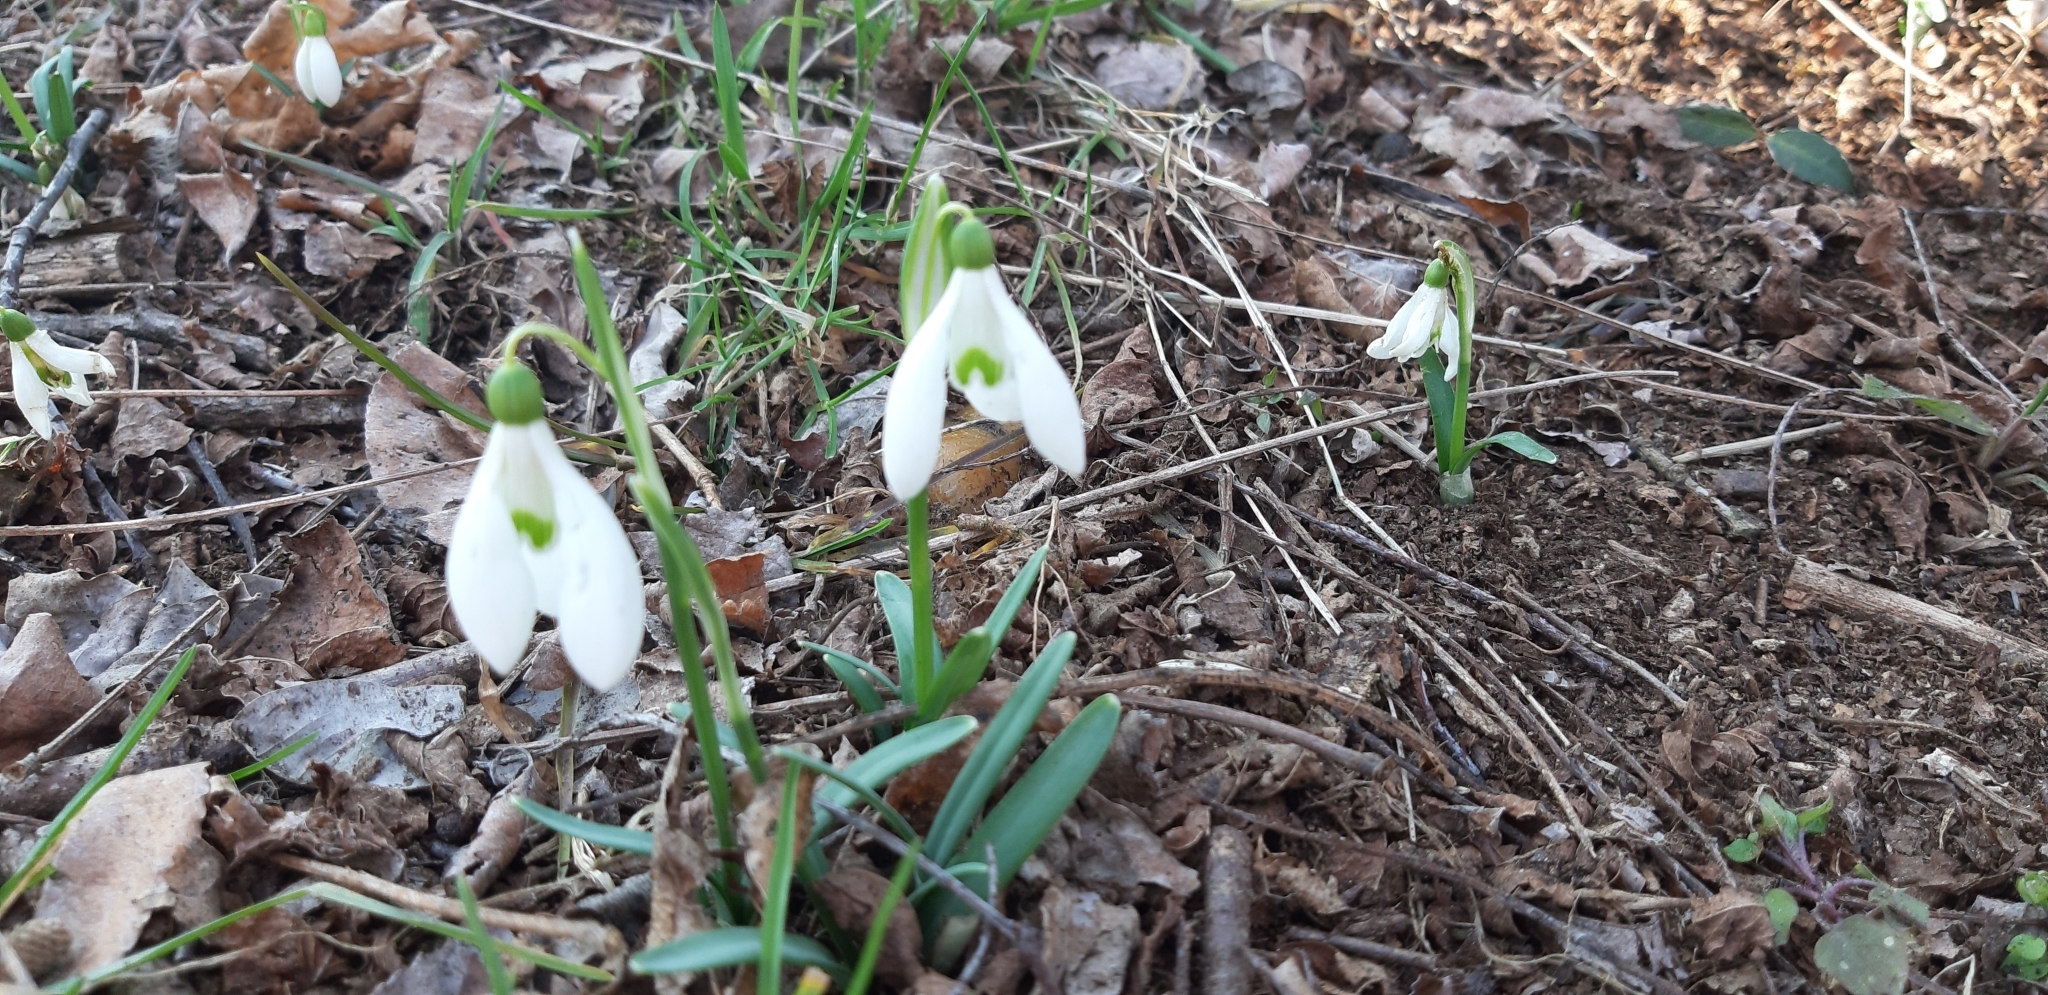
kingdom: Plantae
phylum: Tracheophyta
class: Liliopsida
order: Asparagales
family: Amaryllidaceae
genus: Galanthus
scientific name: Galanthus nivalis
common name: Snowdrop
